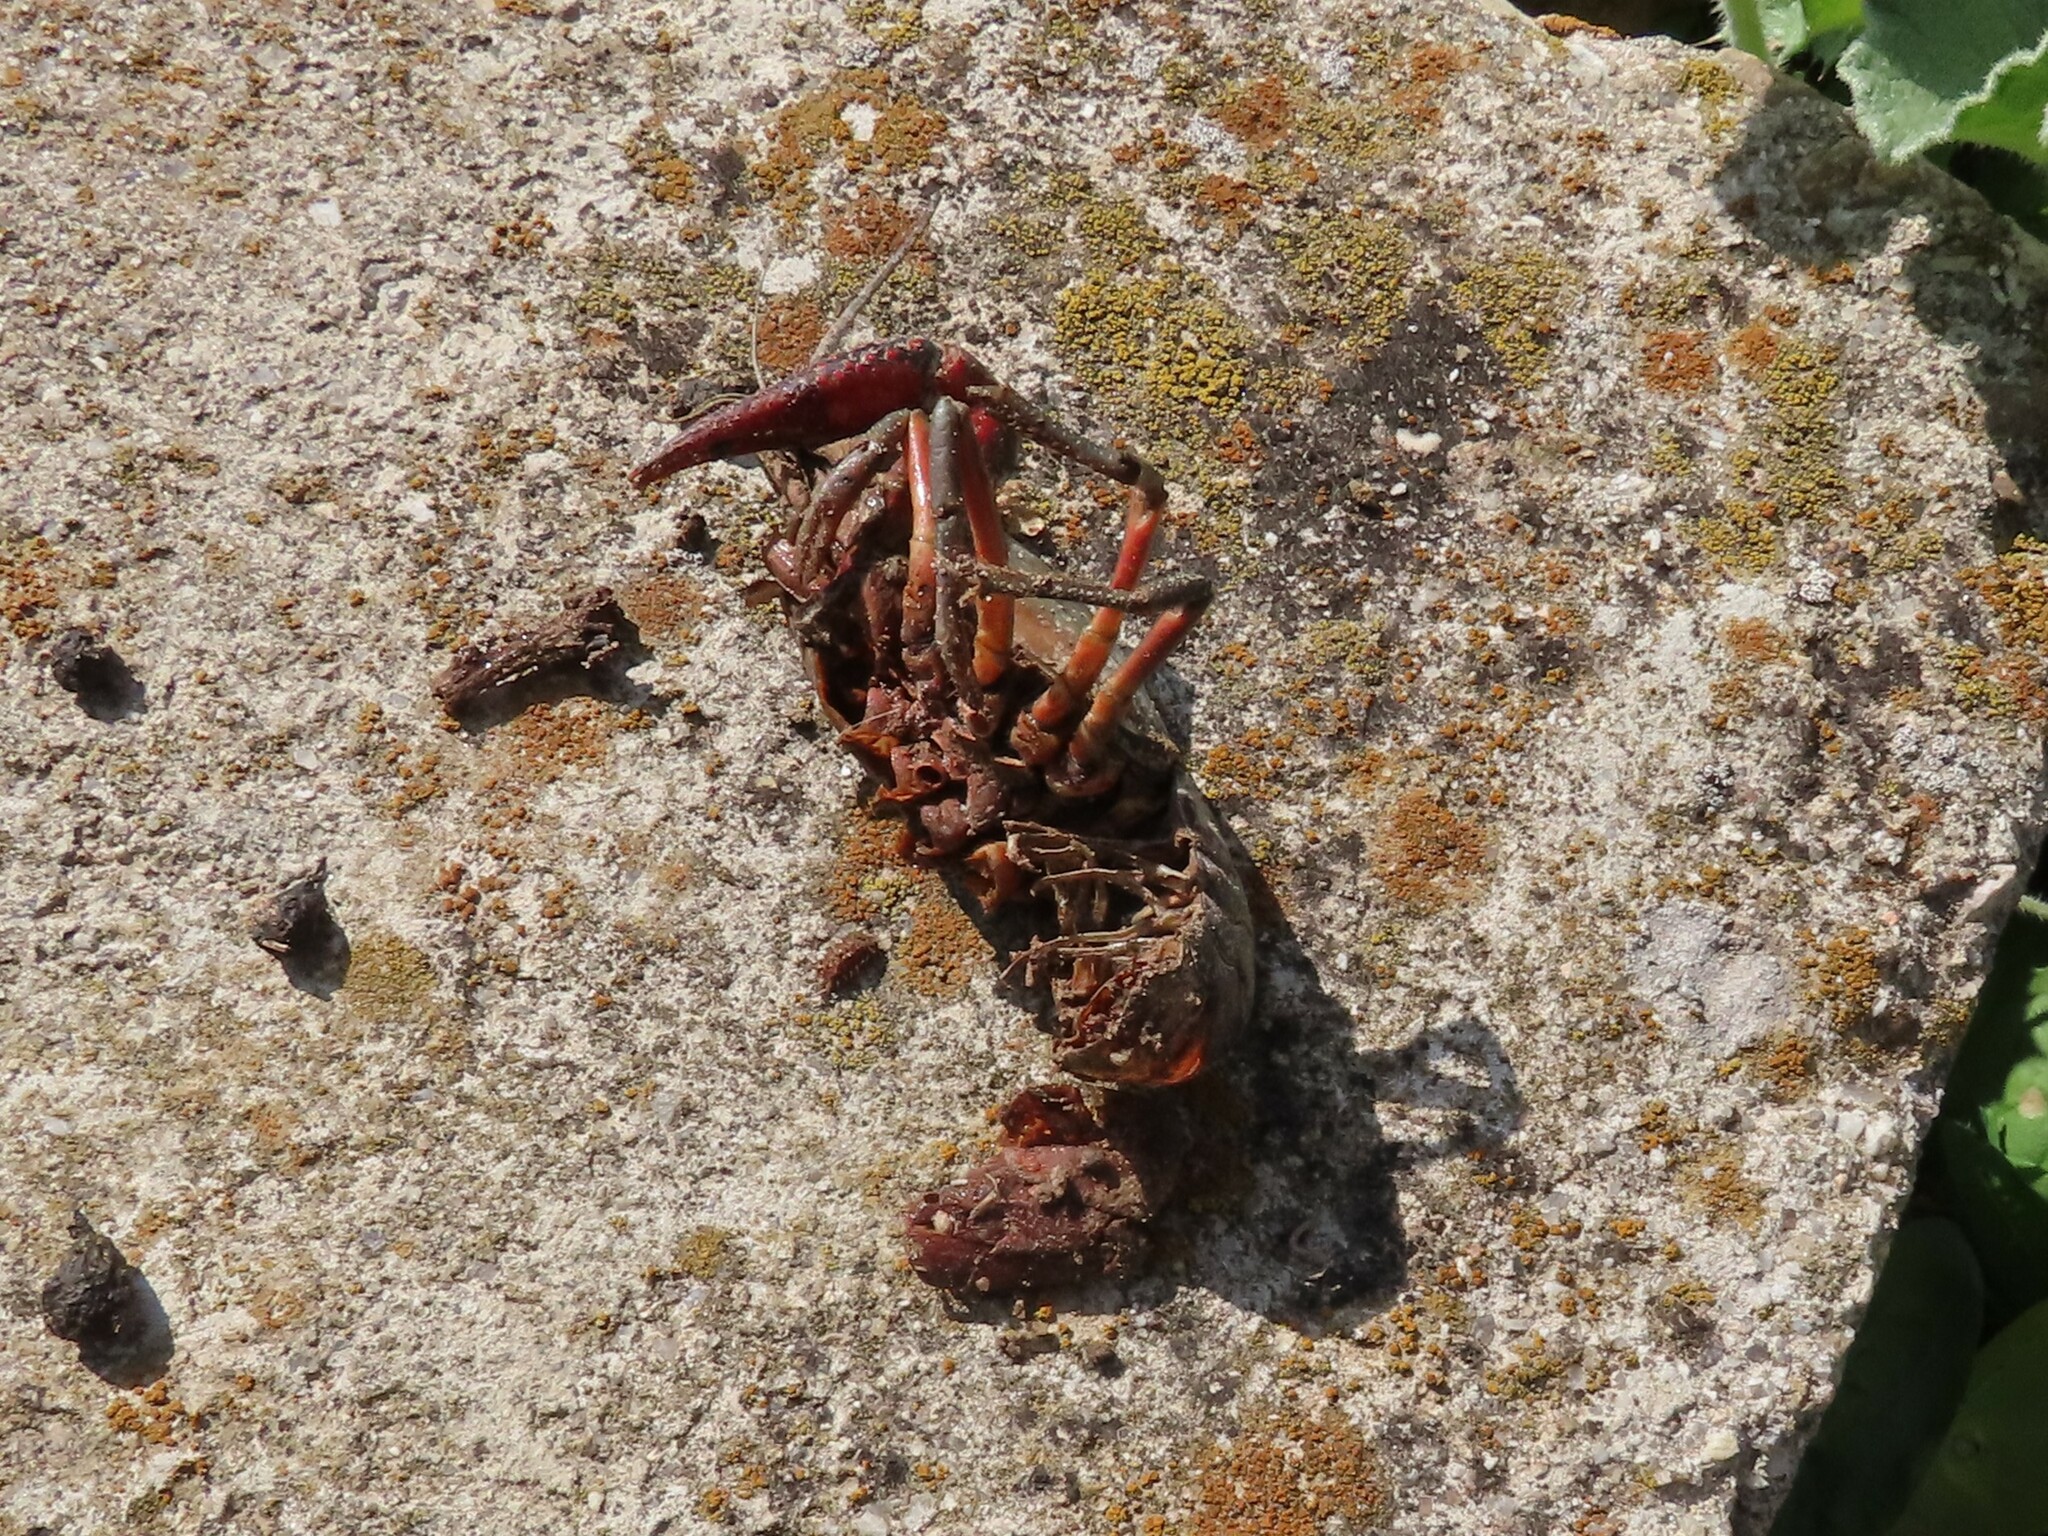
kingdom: Animalia
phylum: Arthropoda
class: Malacostraca
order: Decapoda
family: Cambaridae
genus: Procambarus
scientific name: Procambarus clarkii
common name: Red swamp crayfish
